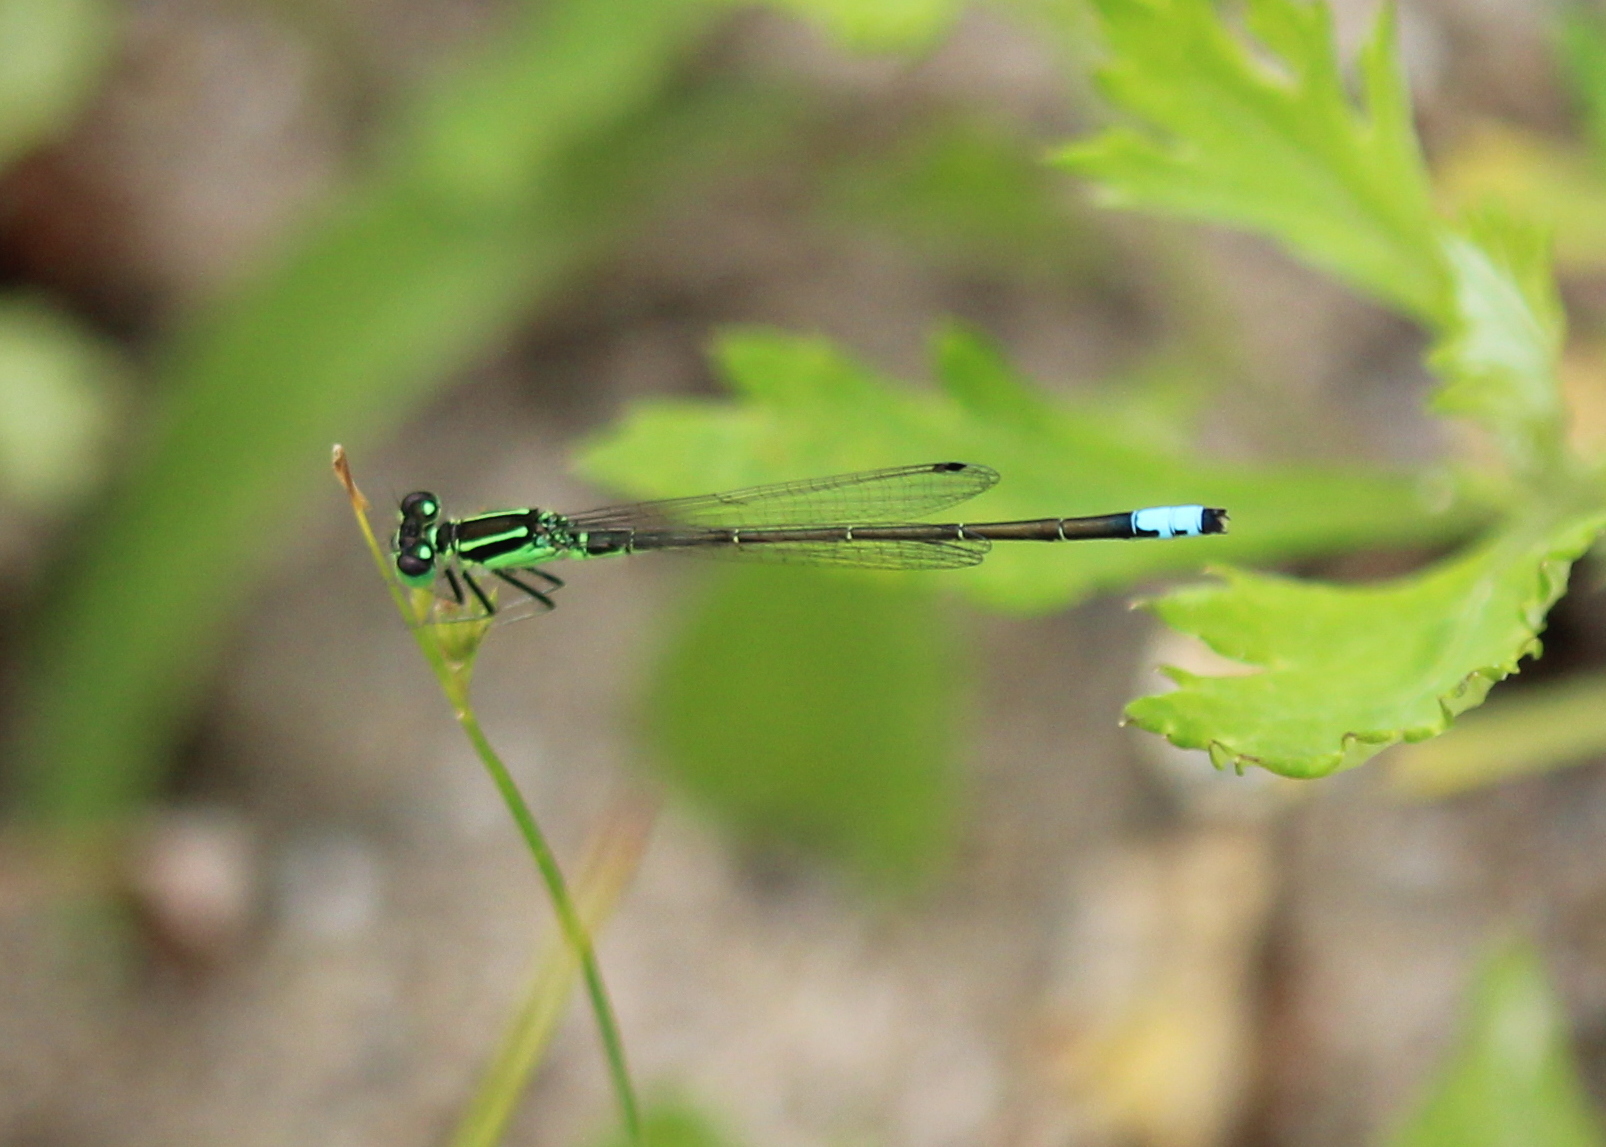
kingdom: Animalia
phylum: Arthropoda
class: Insecta
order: Odonata
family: Coenagrionidae
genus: Ischnura
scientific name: Ischnura verticalis
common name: Eastern forktail
